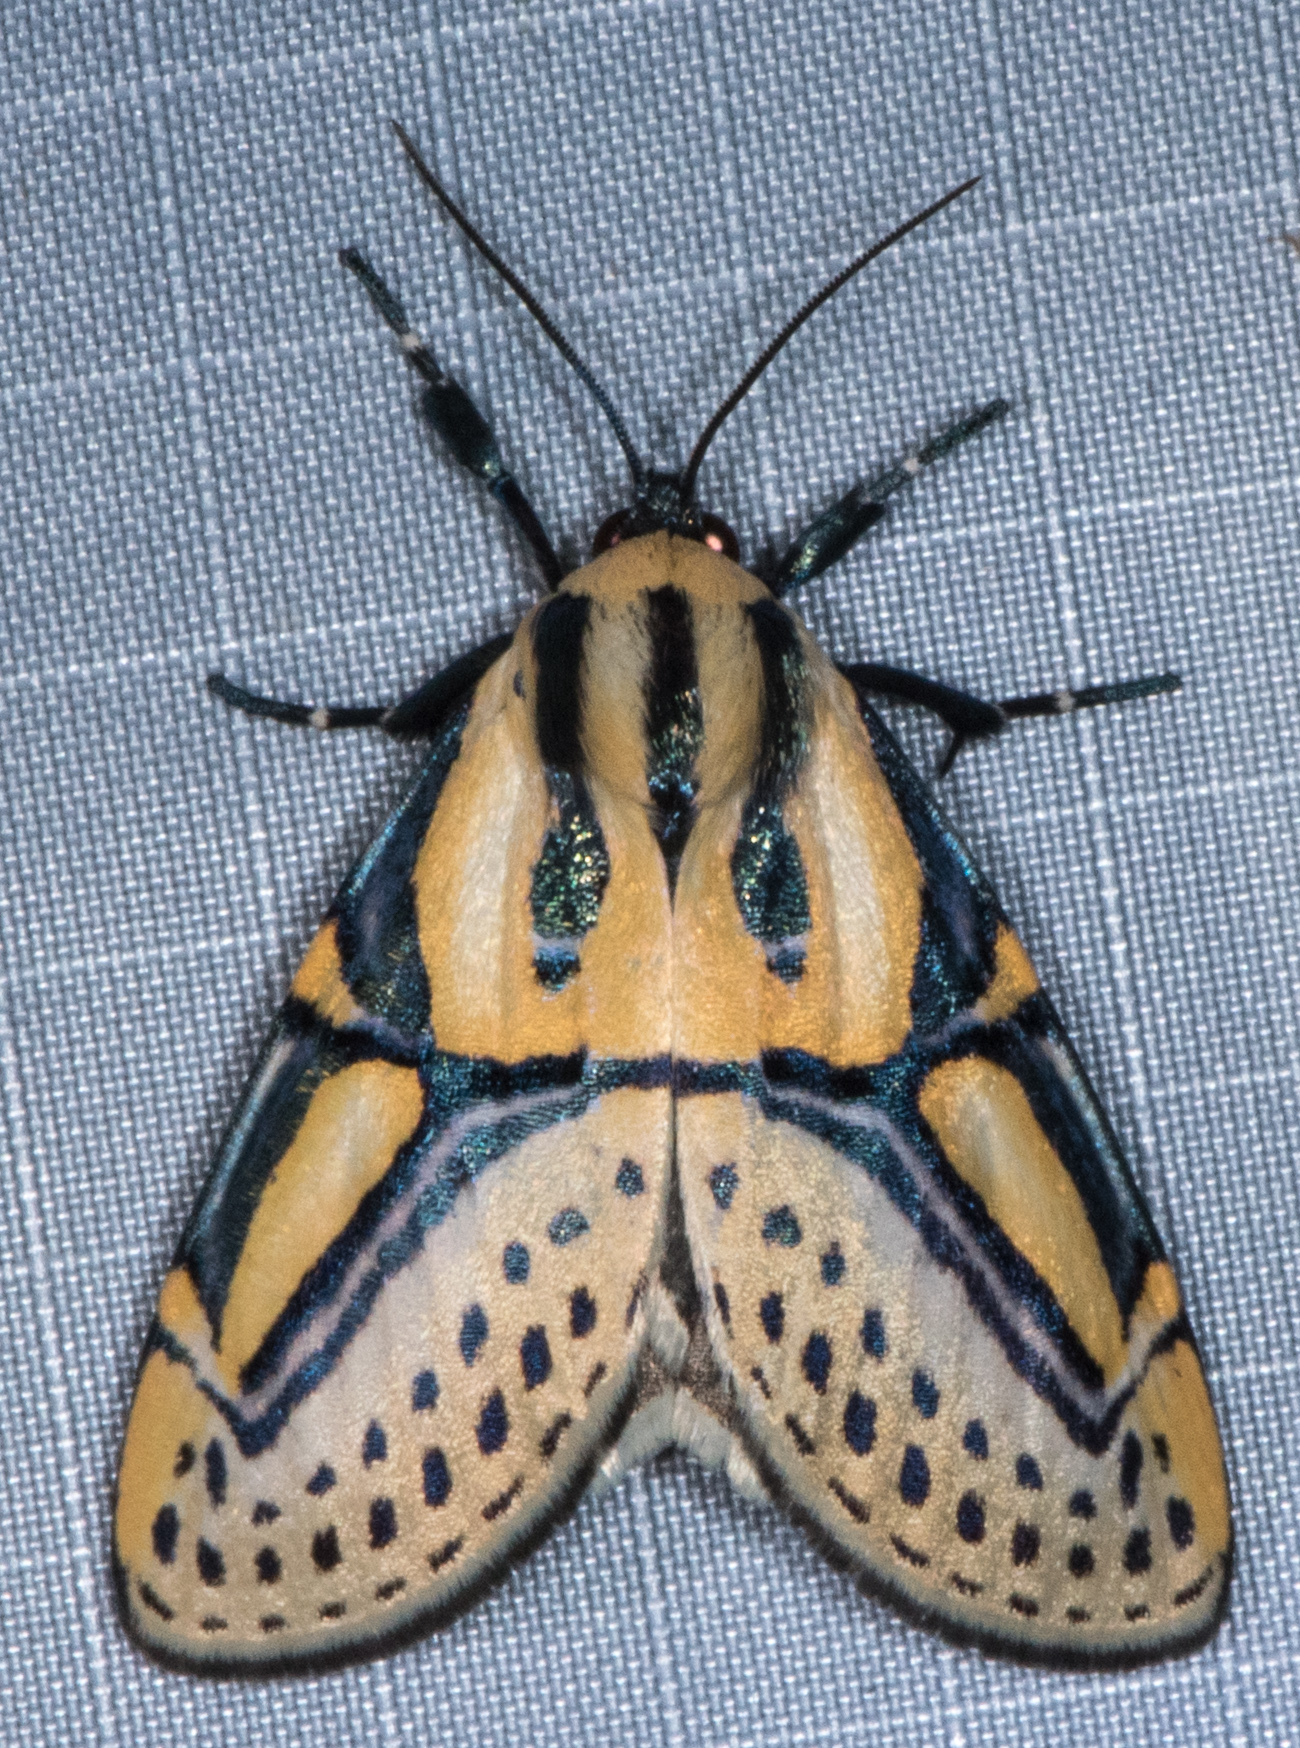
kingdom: Animalia
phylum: Arthropoda
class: Insecta
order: Lepidoptera
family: Erebidae
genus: Diphthera
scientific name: Diphthera festiva
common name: Hieroglyphic moth
